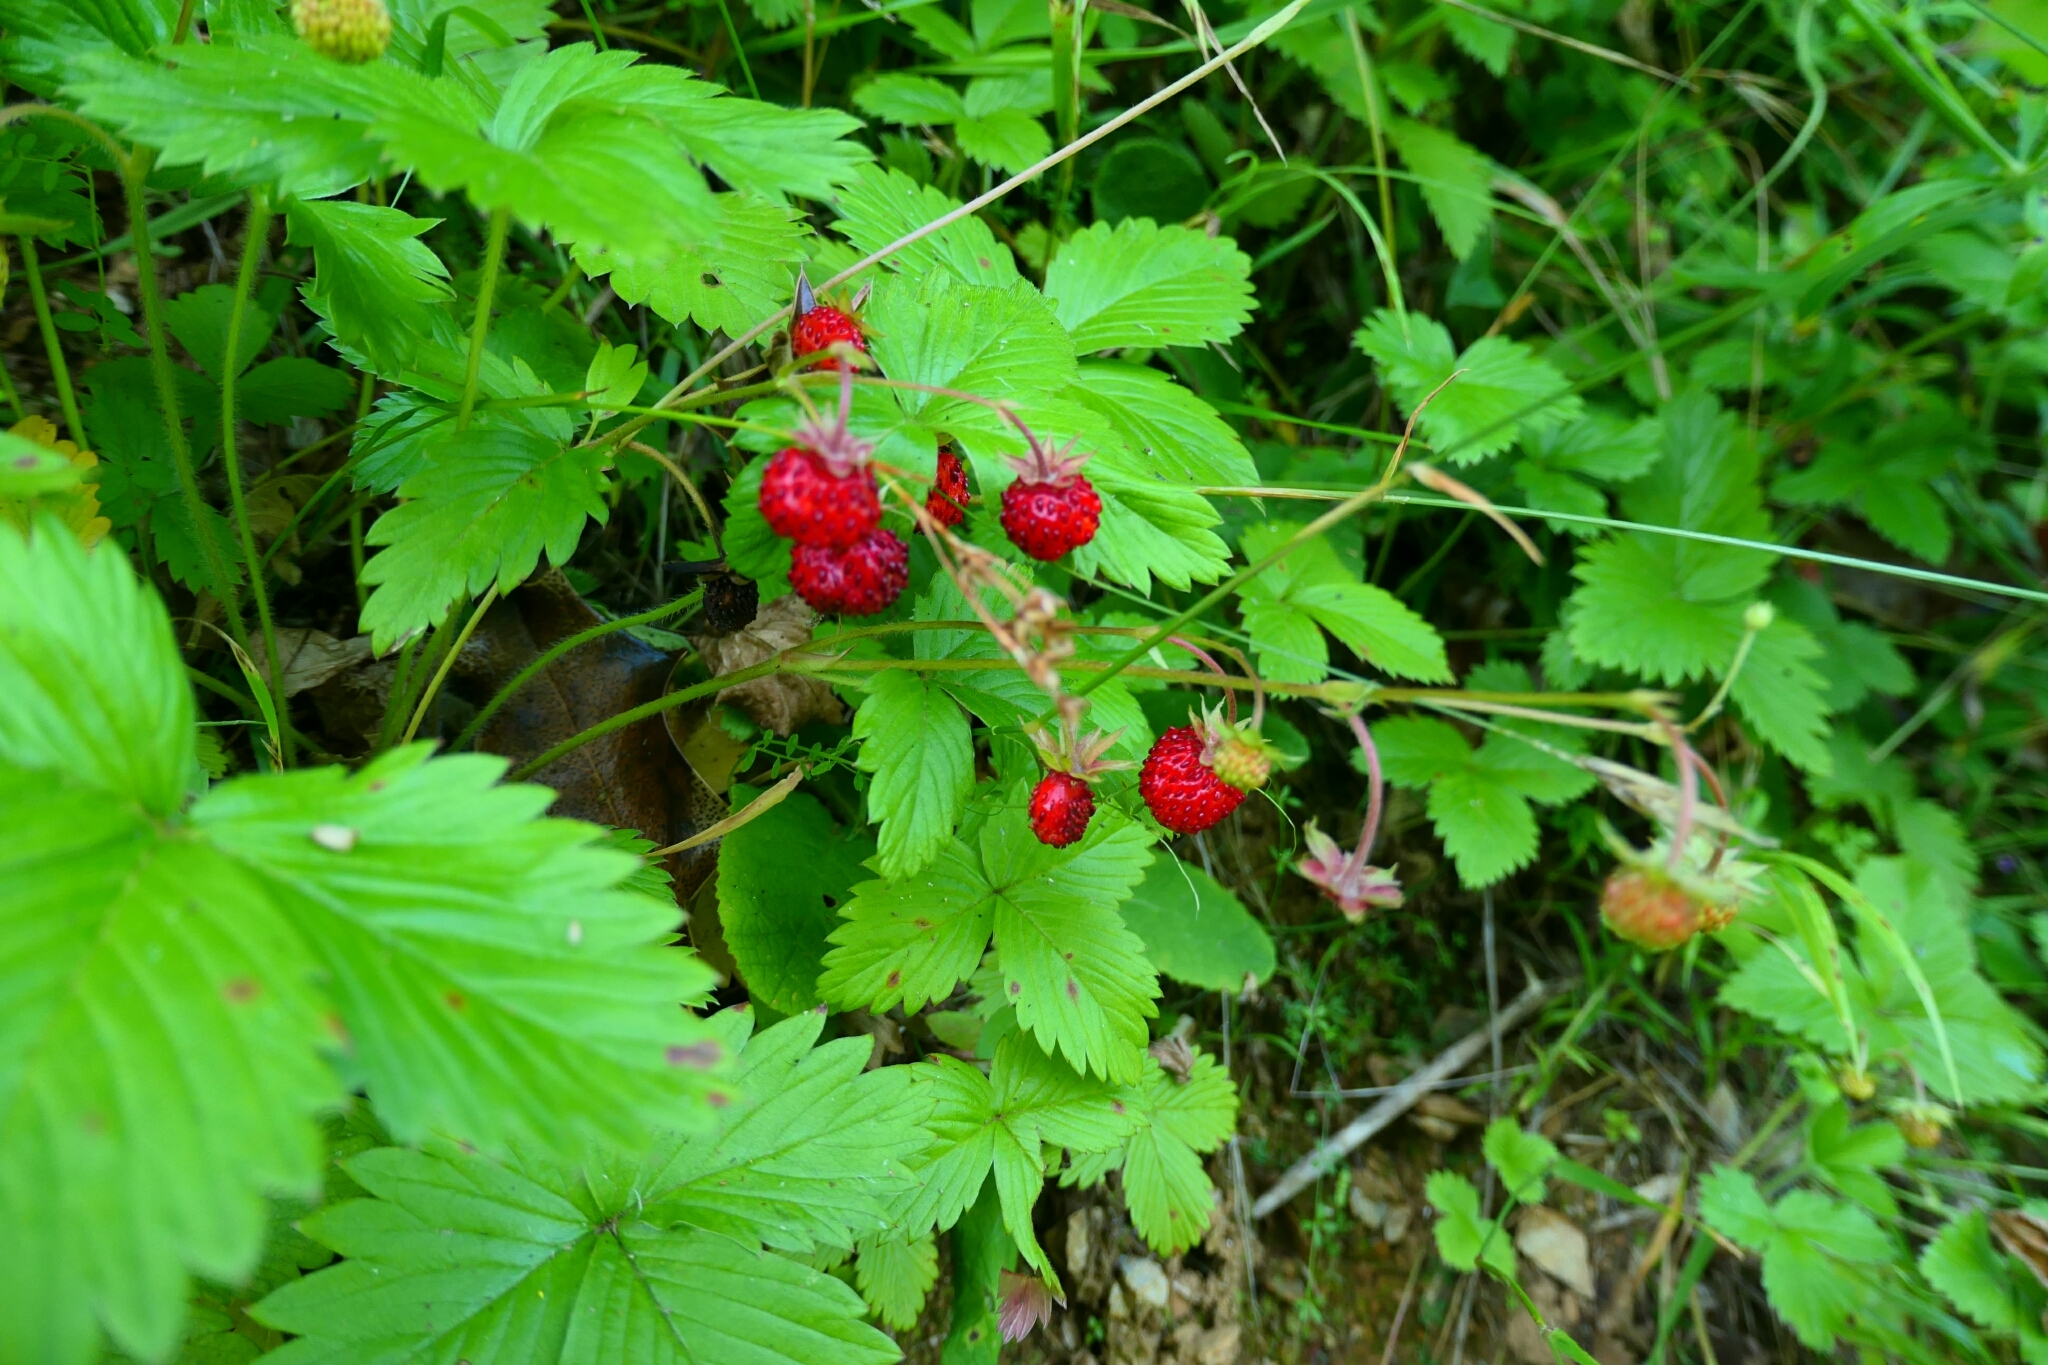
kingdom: Plantae
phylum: Tracheophyta
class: Magnoliopsida
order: Rosales
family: Rosaceae
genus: Fragaria
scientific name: Fragaria vesca
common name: Wild strawberry
